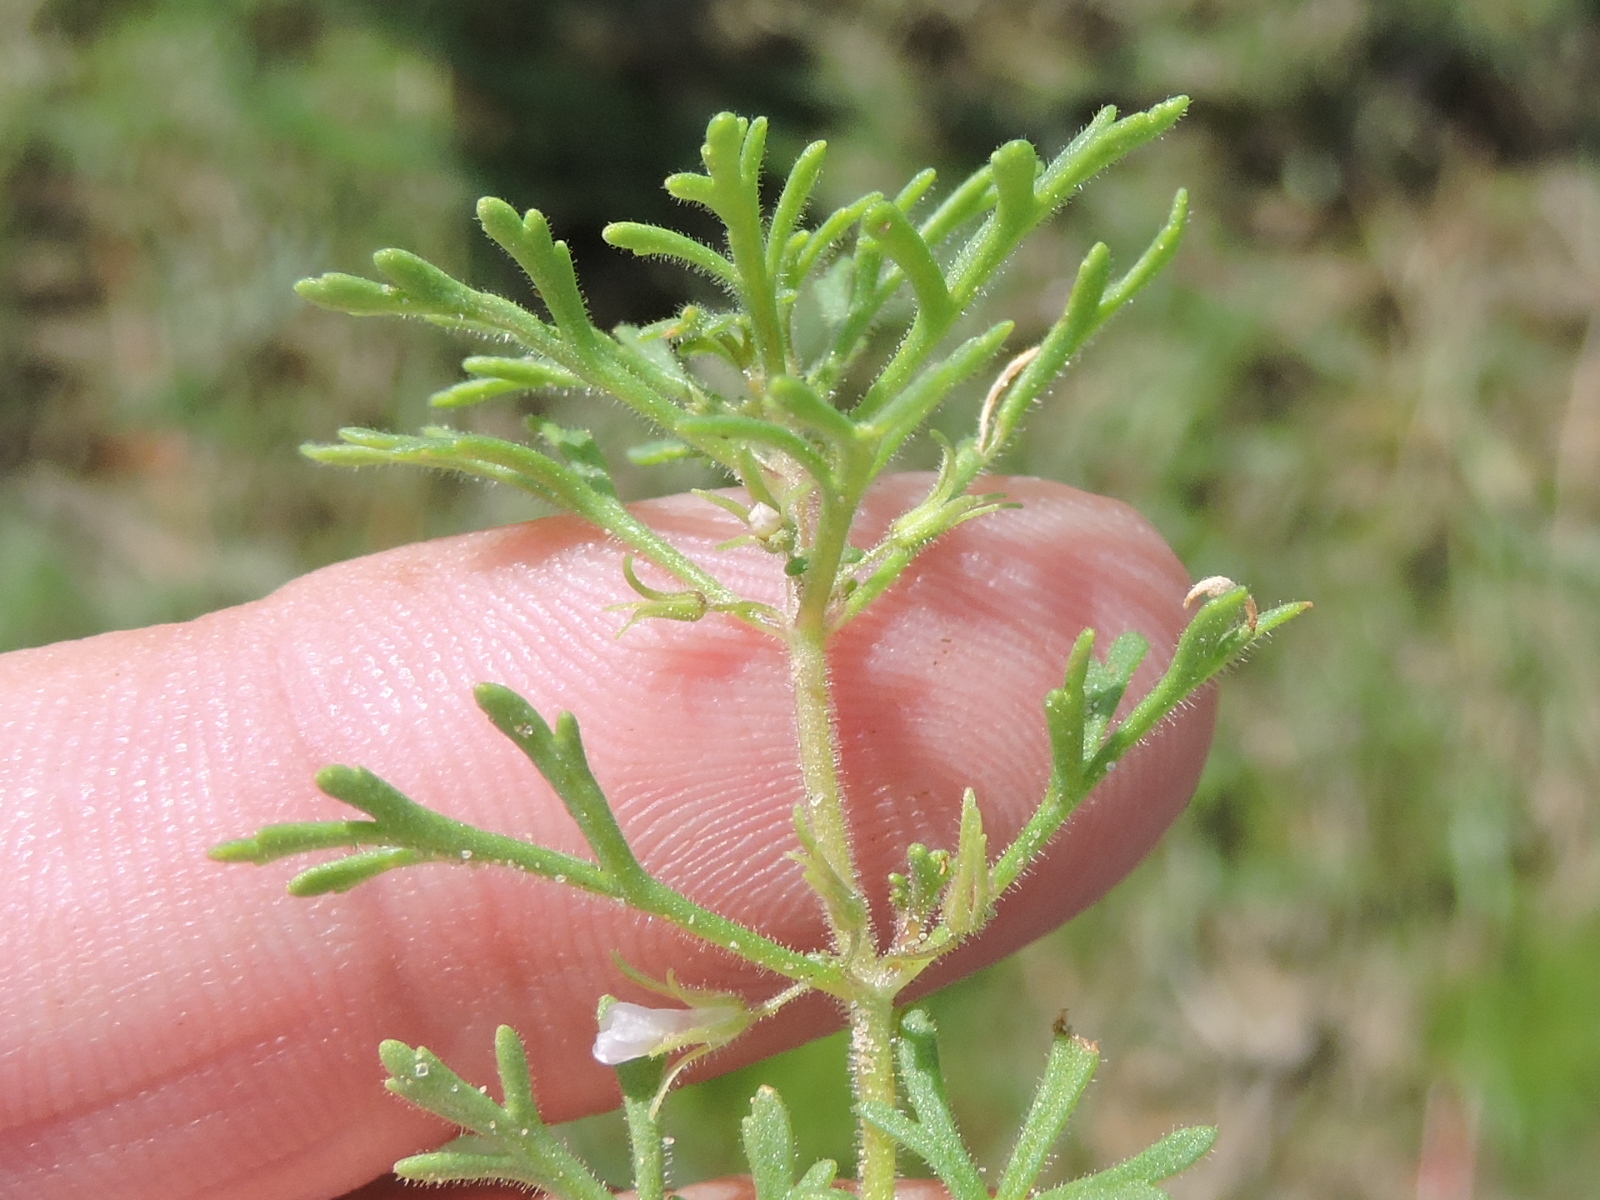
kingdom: Plantae
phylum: Tracheophyta
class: Magnoliopsida
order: Lamiales
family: Plantaginaceae
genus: Leucospora
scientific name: Leucospora multifida
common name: Narrow-leaf paleseed
